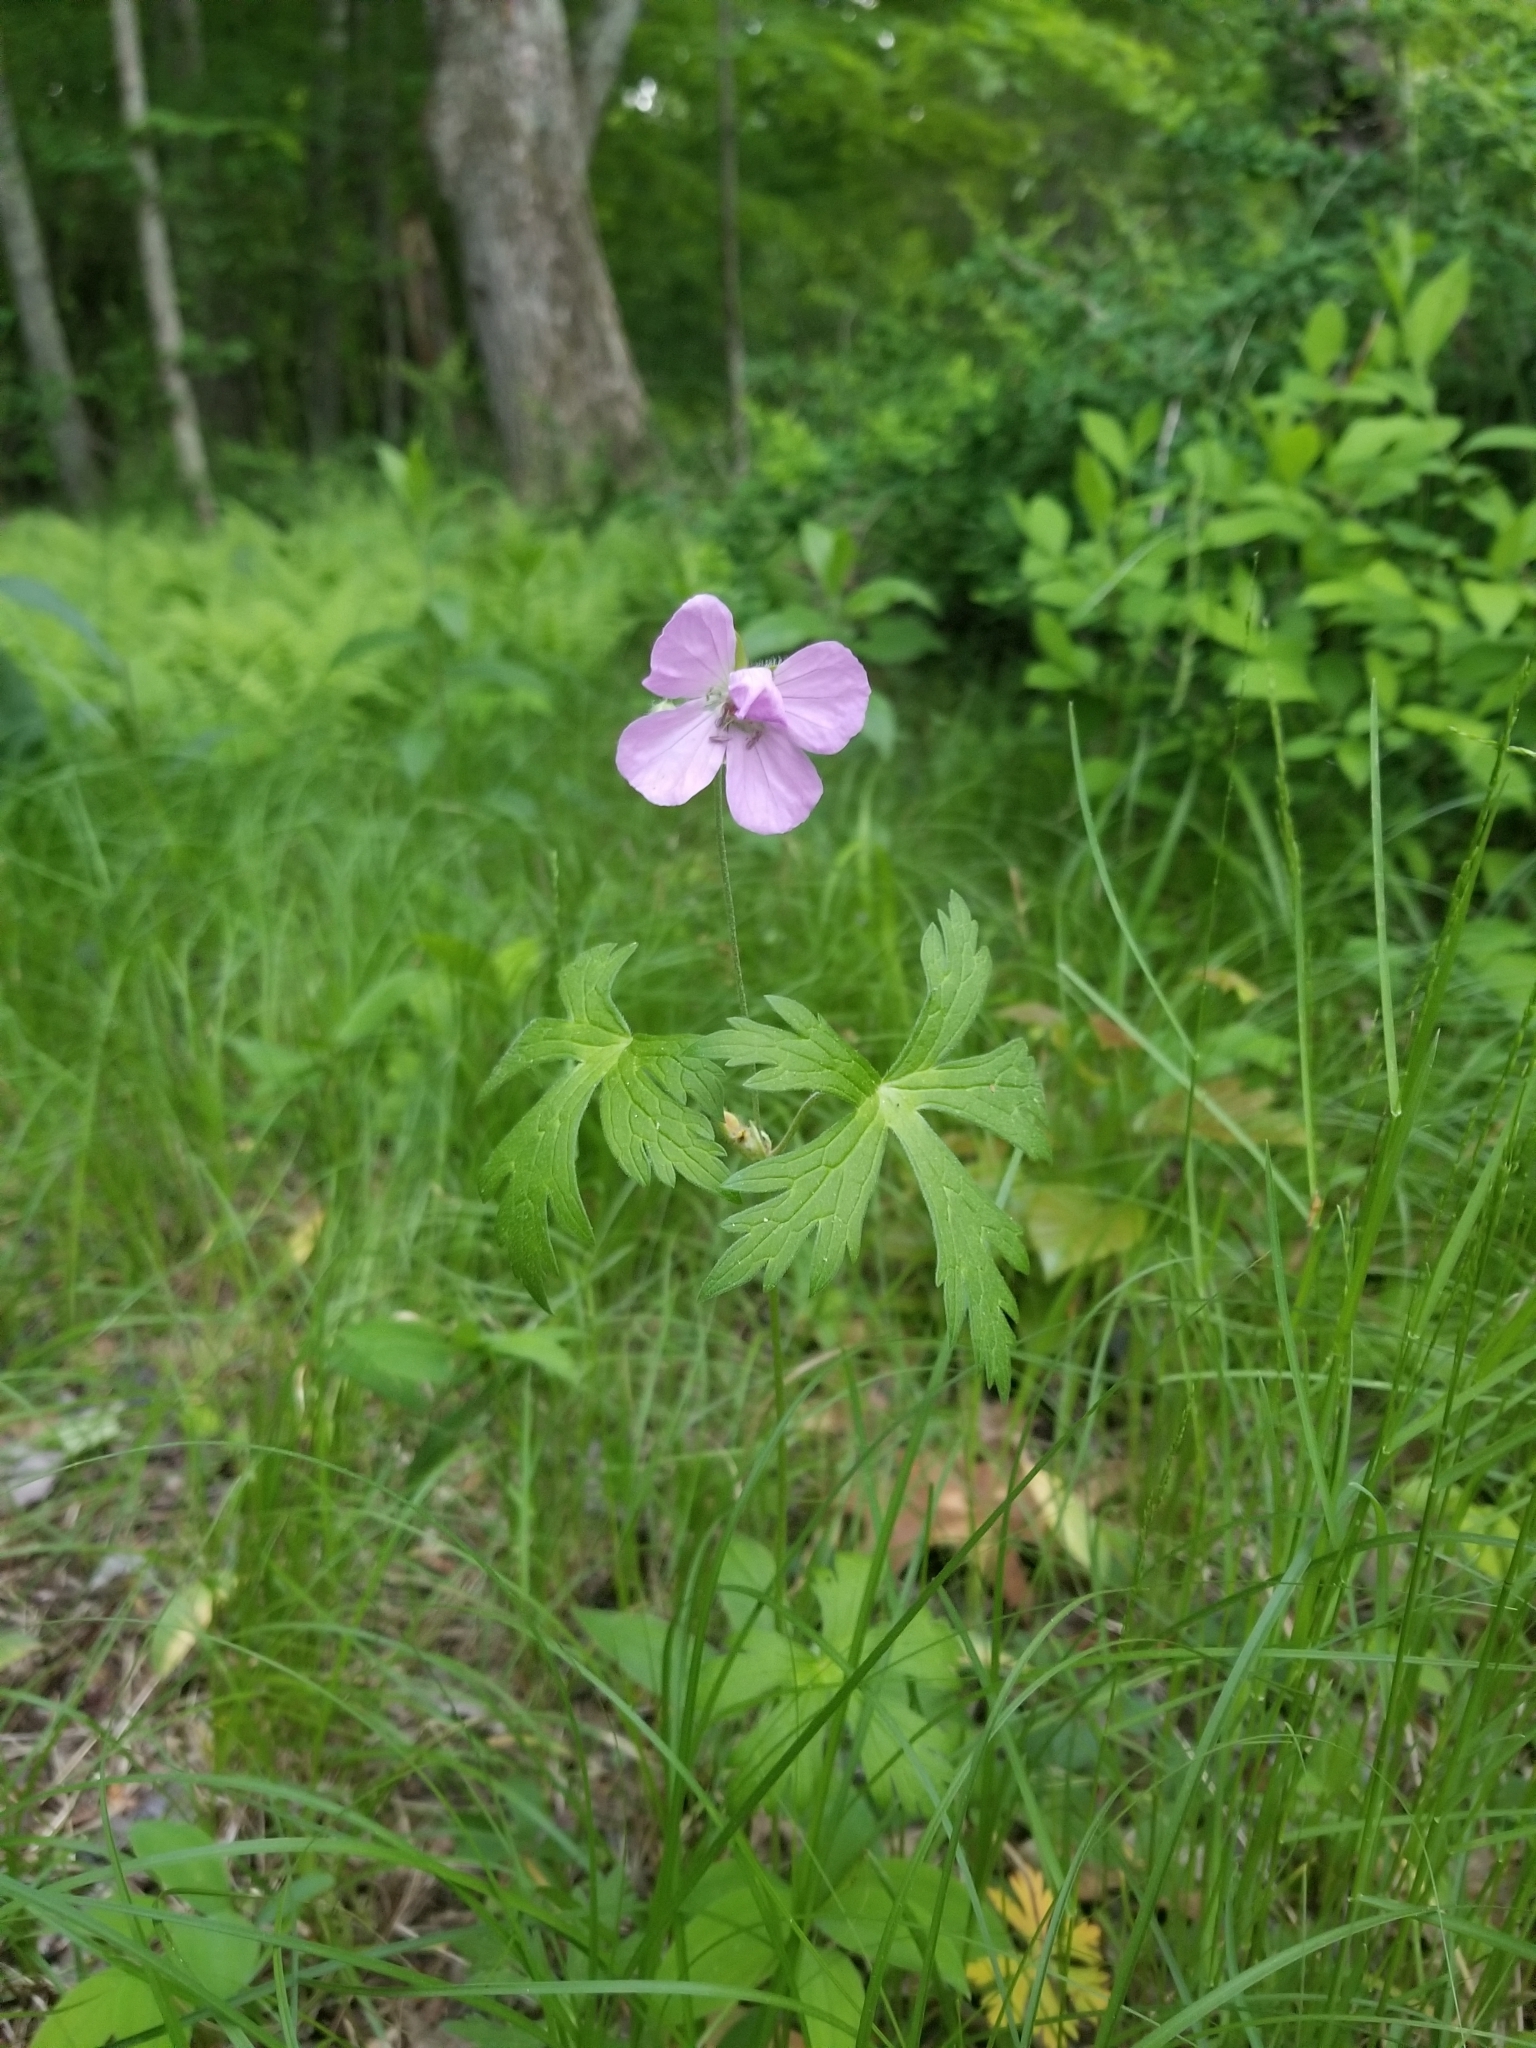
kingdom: Plantae
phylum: Tracheophyta
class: Magnoliopsida
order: Geraniales
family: Geraniaceae
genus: Geranium
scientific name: Geranium maculatum
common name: Spotted geranium
